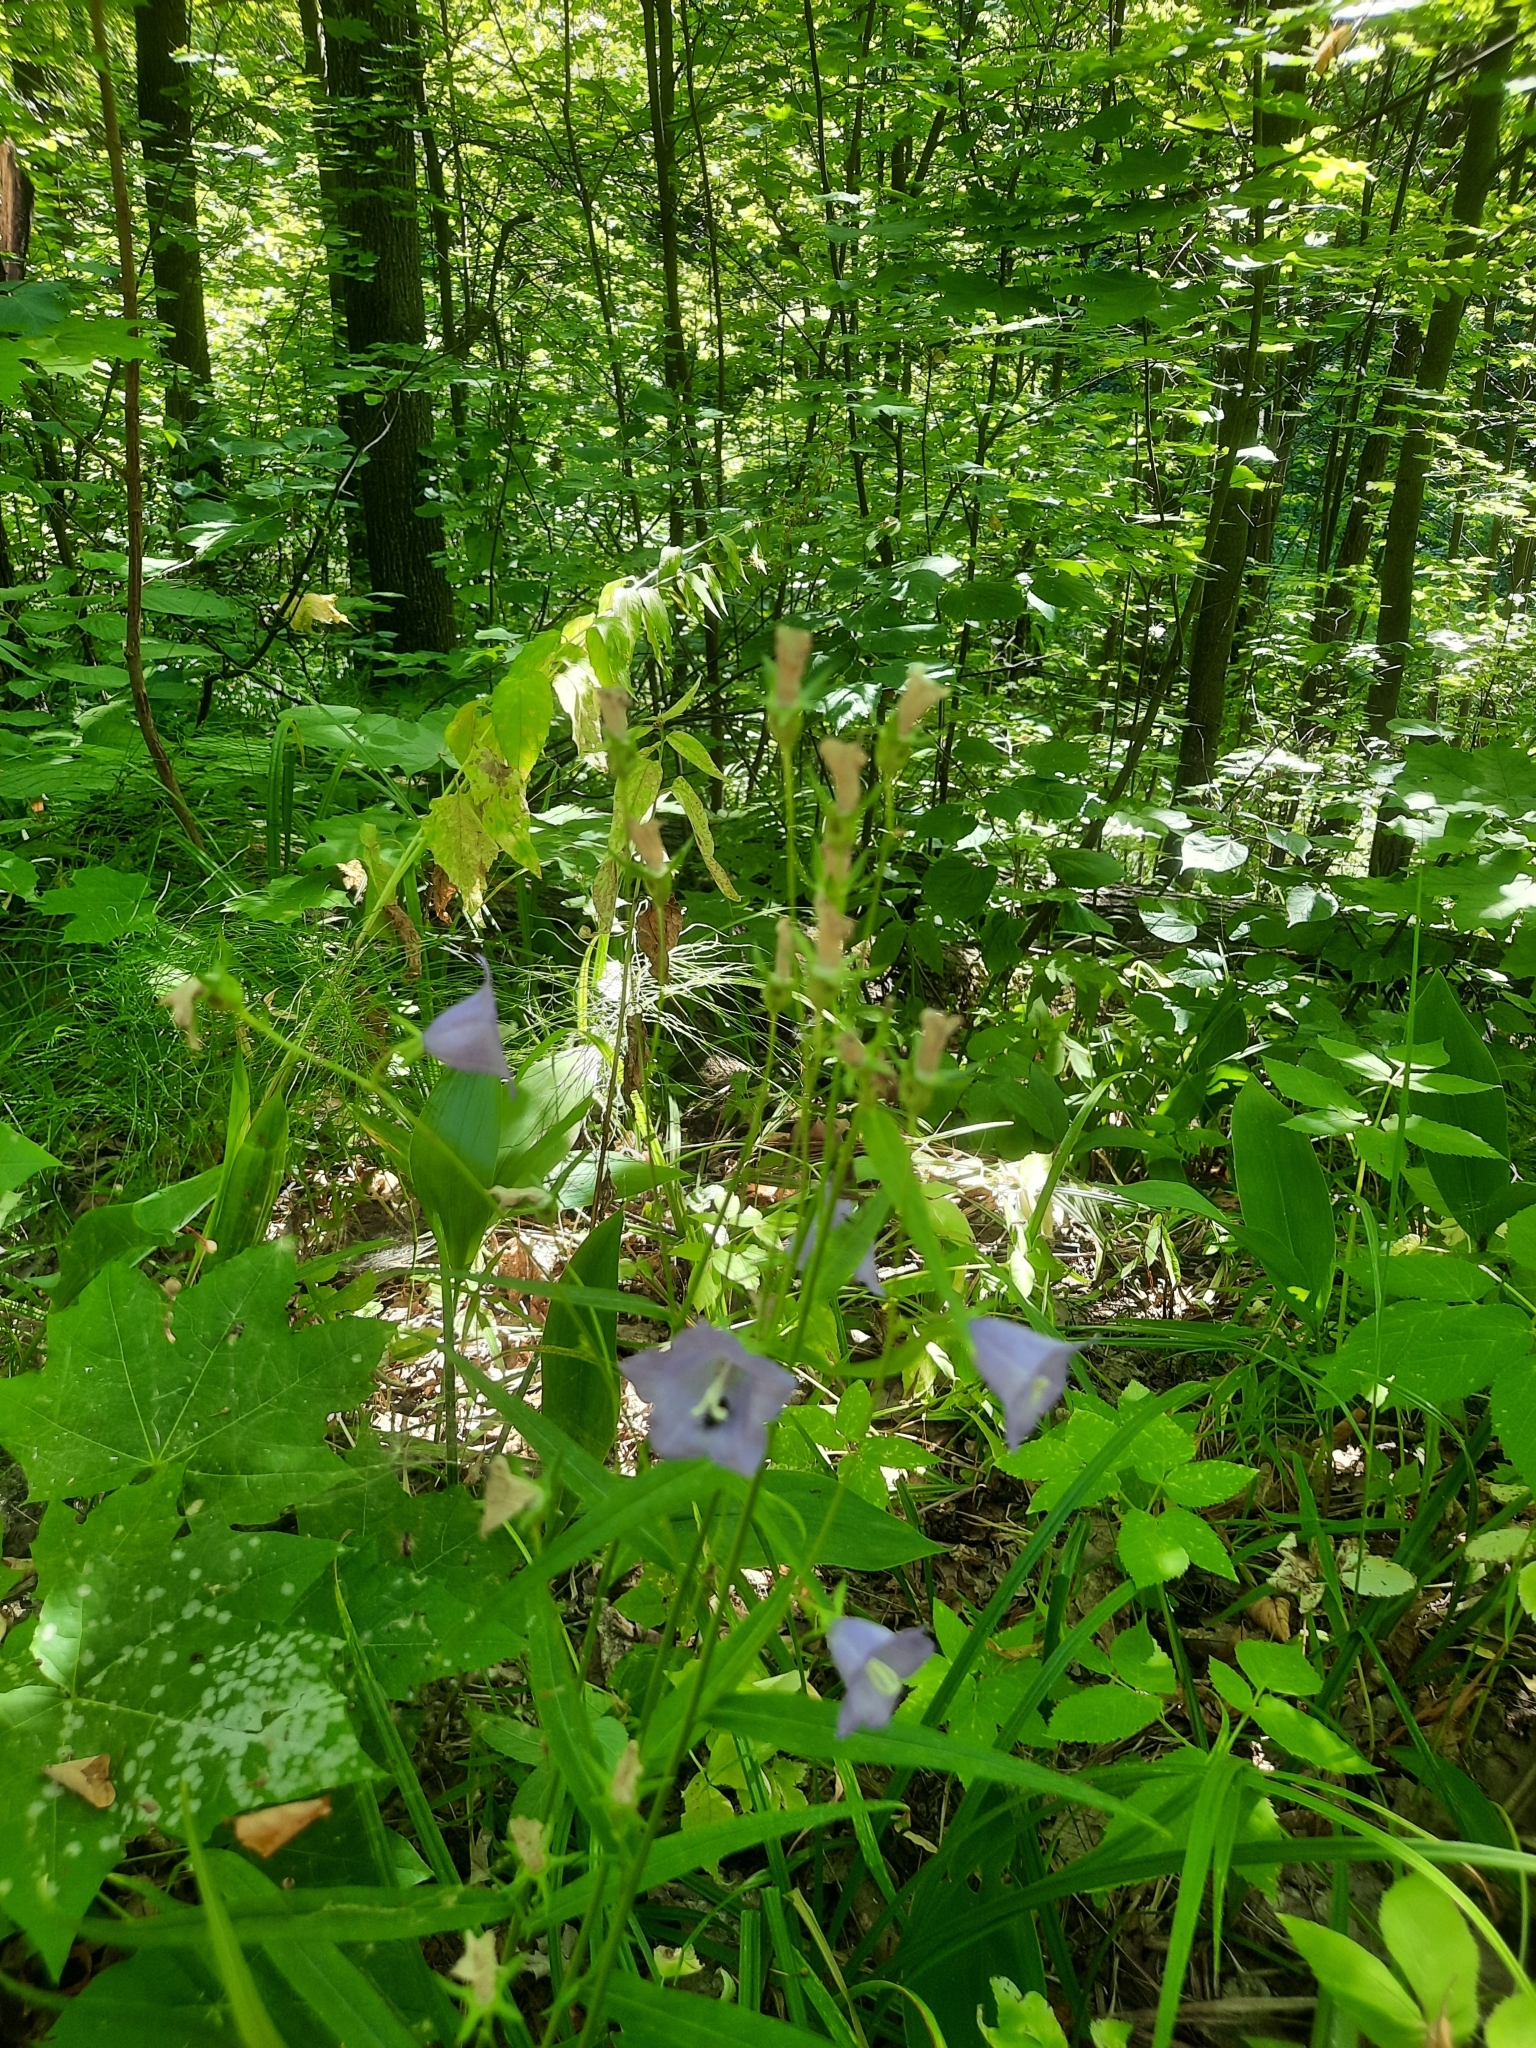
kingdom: Plantae
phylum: Tracheophyta
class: Magnoliopsida
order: Asterales
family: Campanulaceae
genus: Campanula
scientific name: Campanula persicifolia
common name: Peach-leaved bellflower
